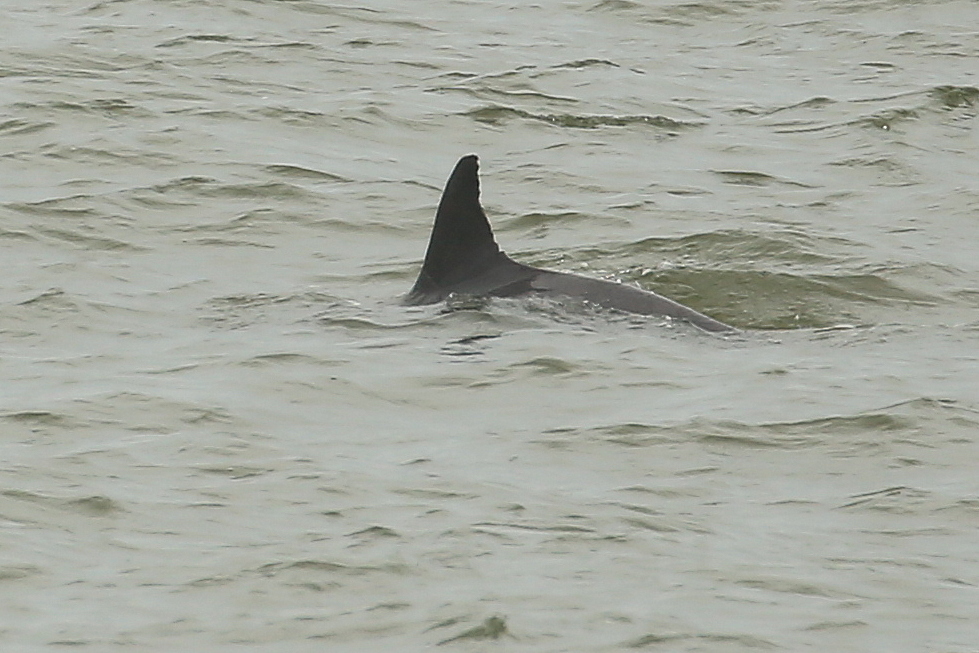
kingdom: Animalia
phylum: Chordata
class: Mammalia
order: Cetacea
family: Delphinidae
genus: Tursiops
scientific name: Tursiops truncatus
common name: Bottlenose dolphin
